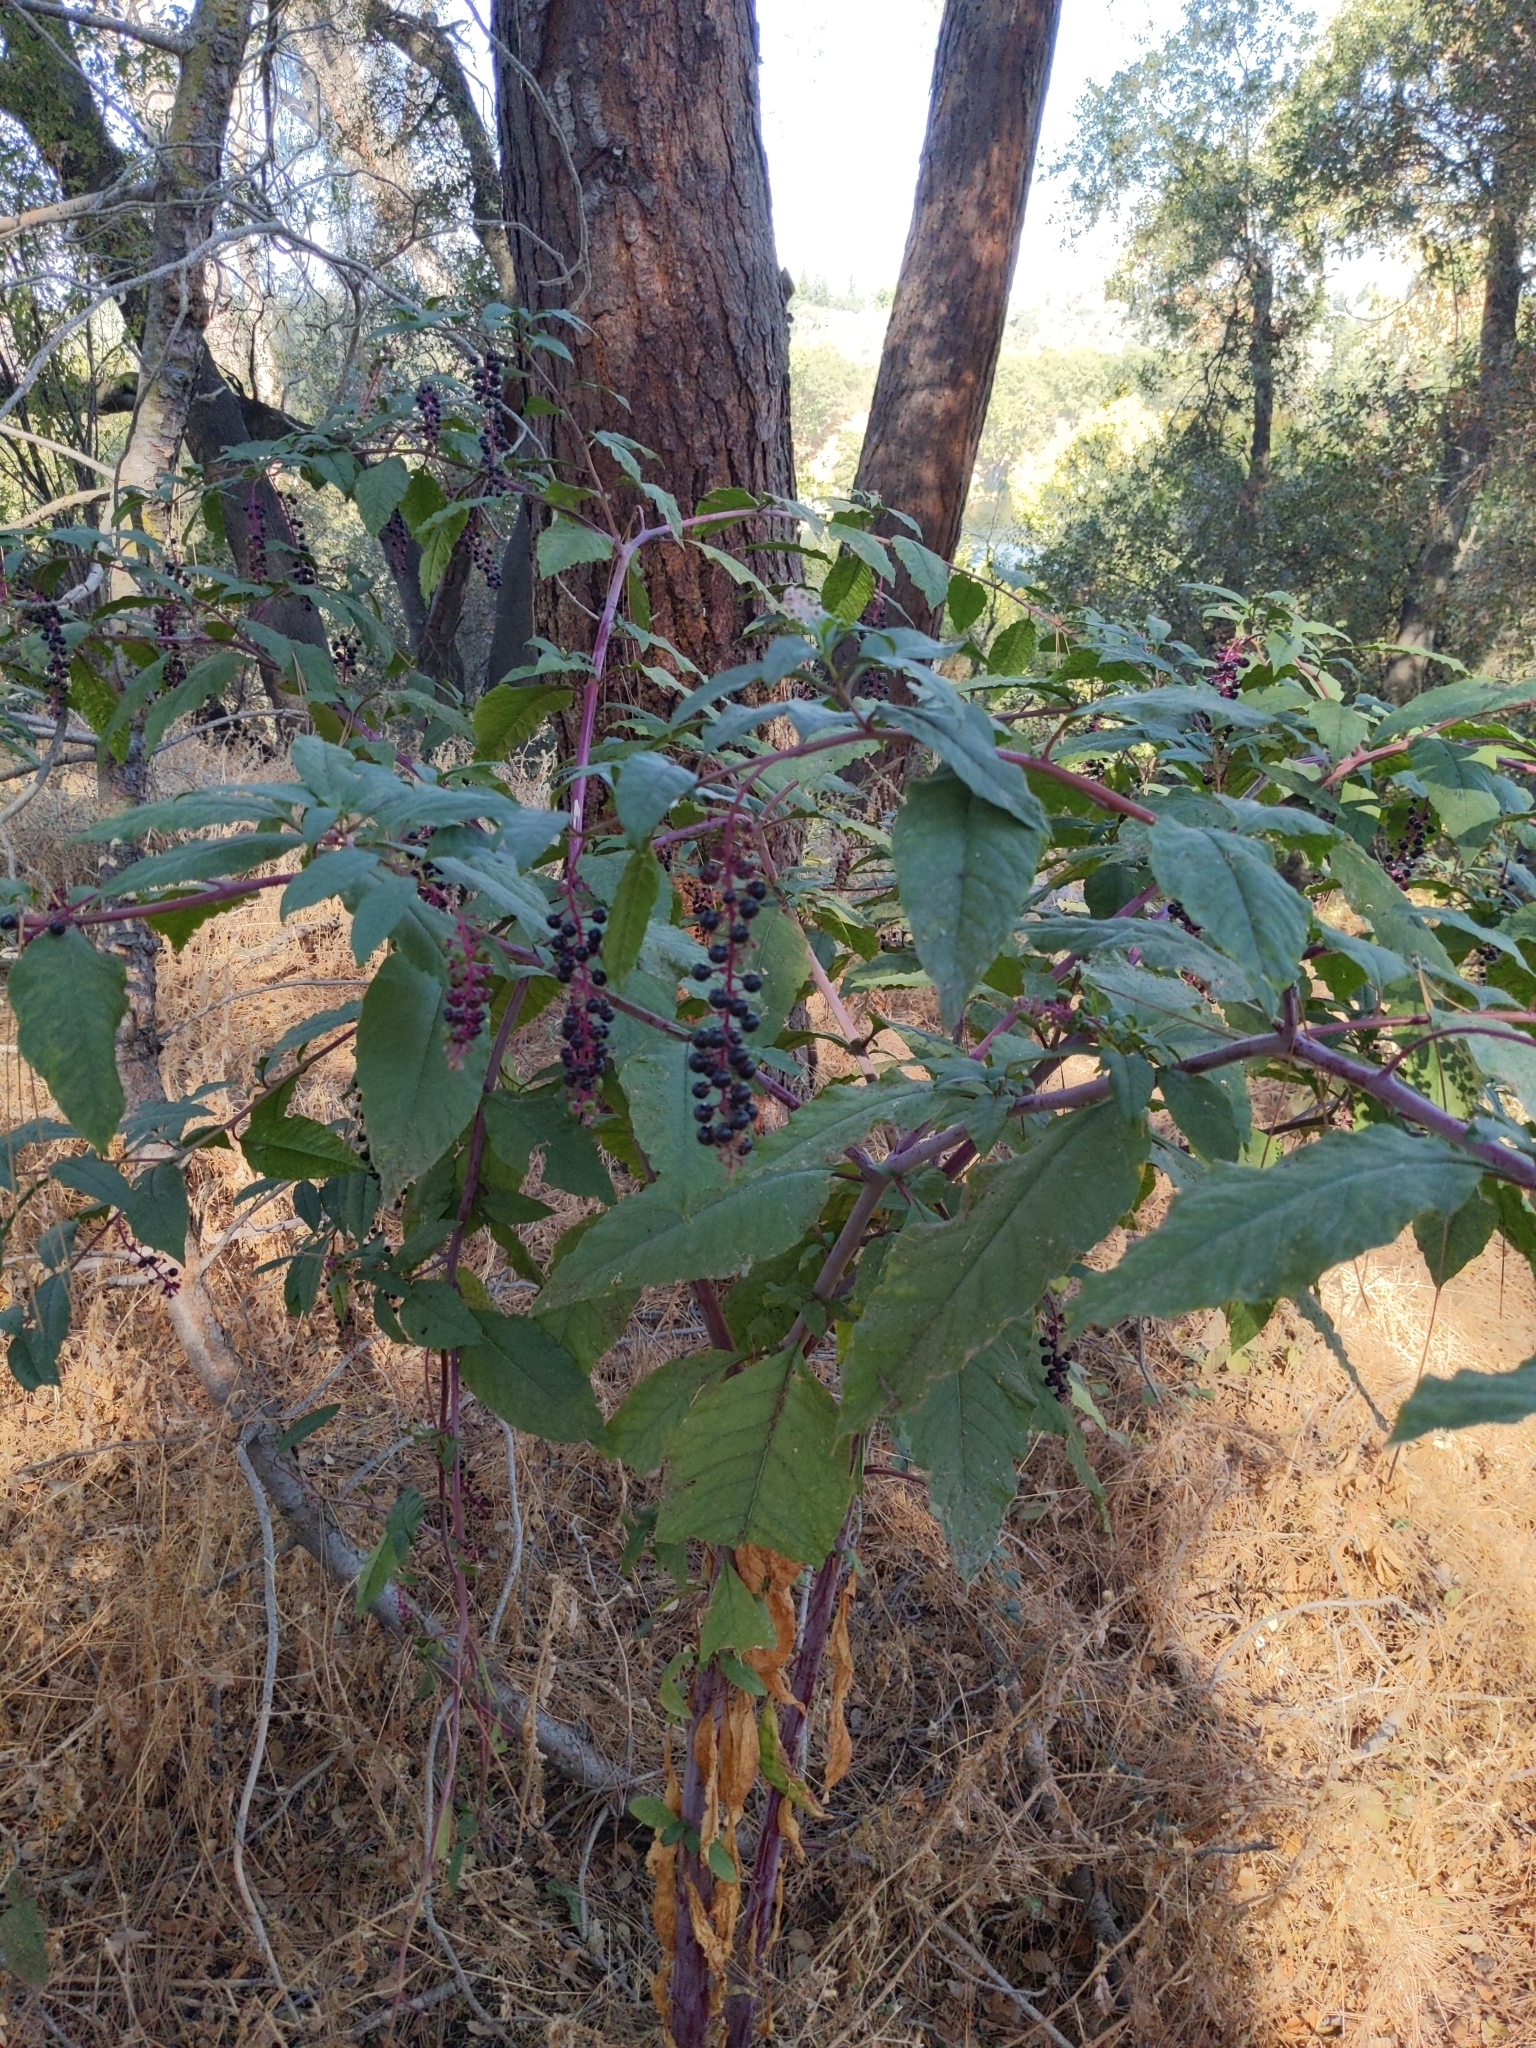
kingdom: Plantae
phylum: Tracheophyta
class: Magnoliopsida
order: Caryophyllales
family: Phytolaccaceae
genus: Phytolacca
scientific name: Phytolacca americana
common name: American pokeweed
